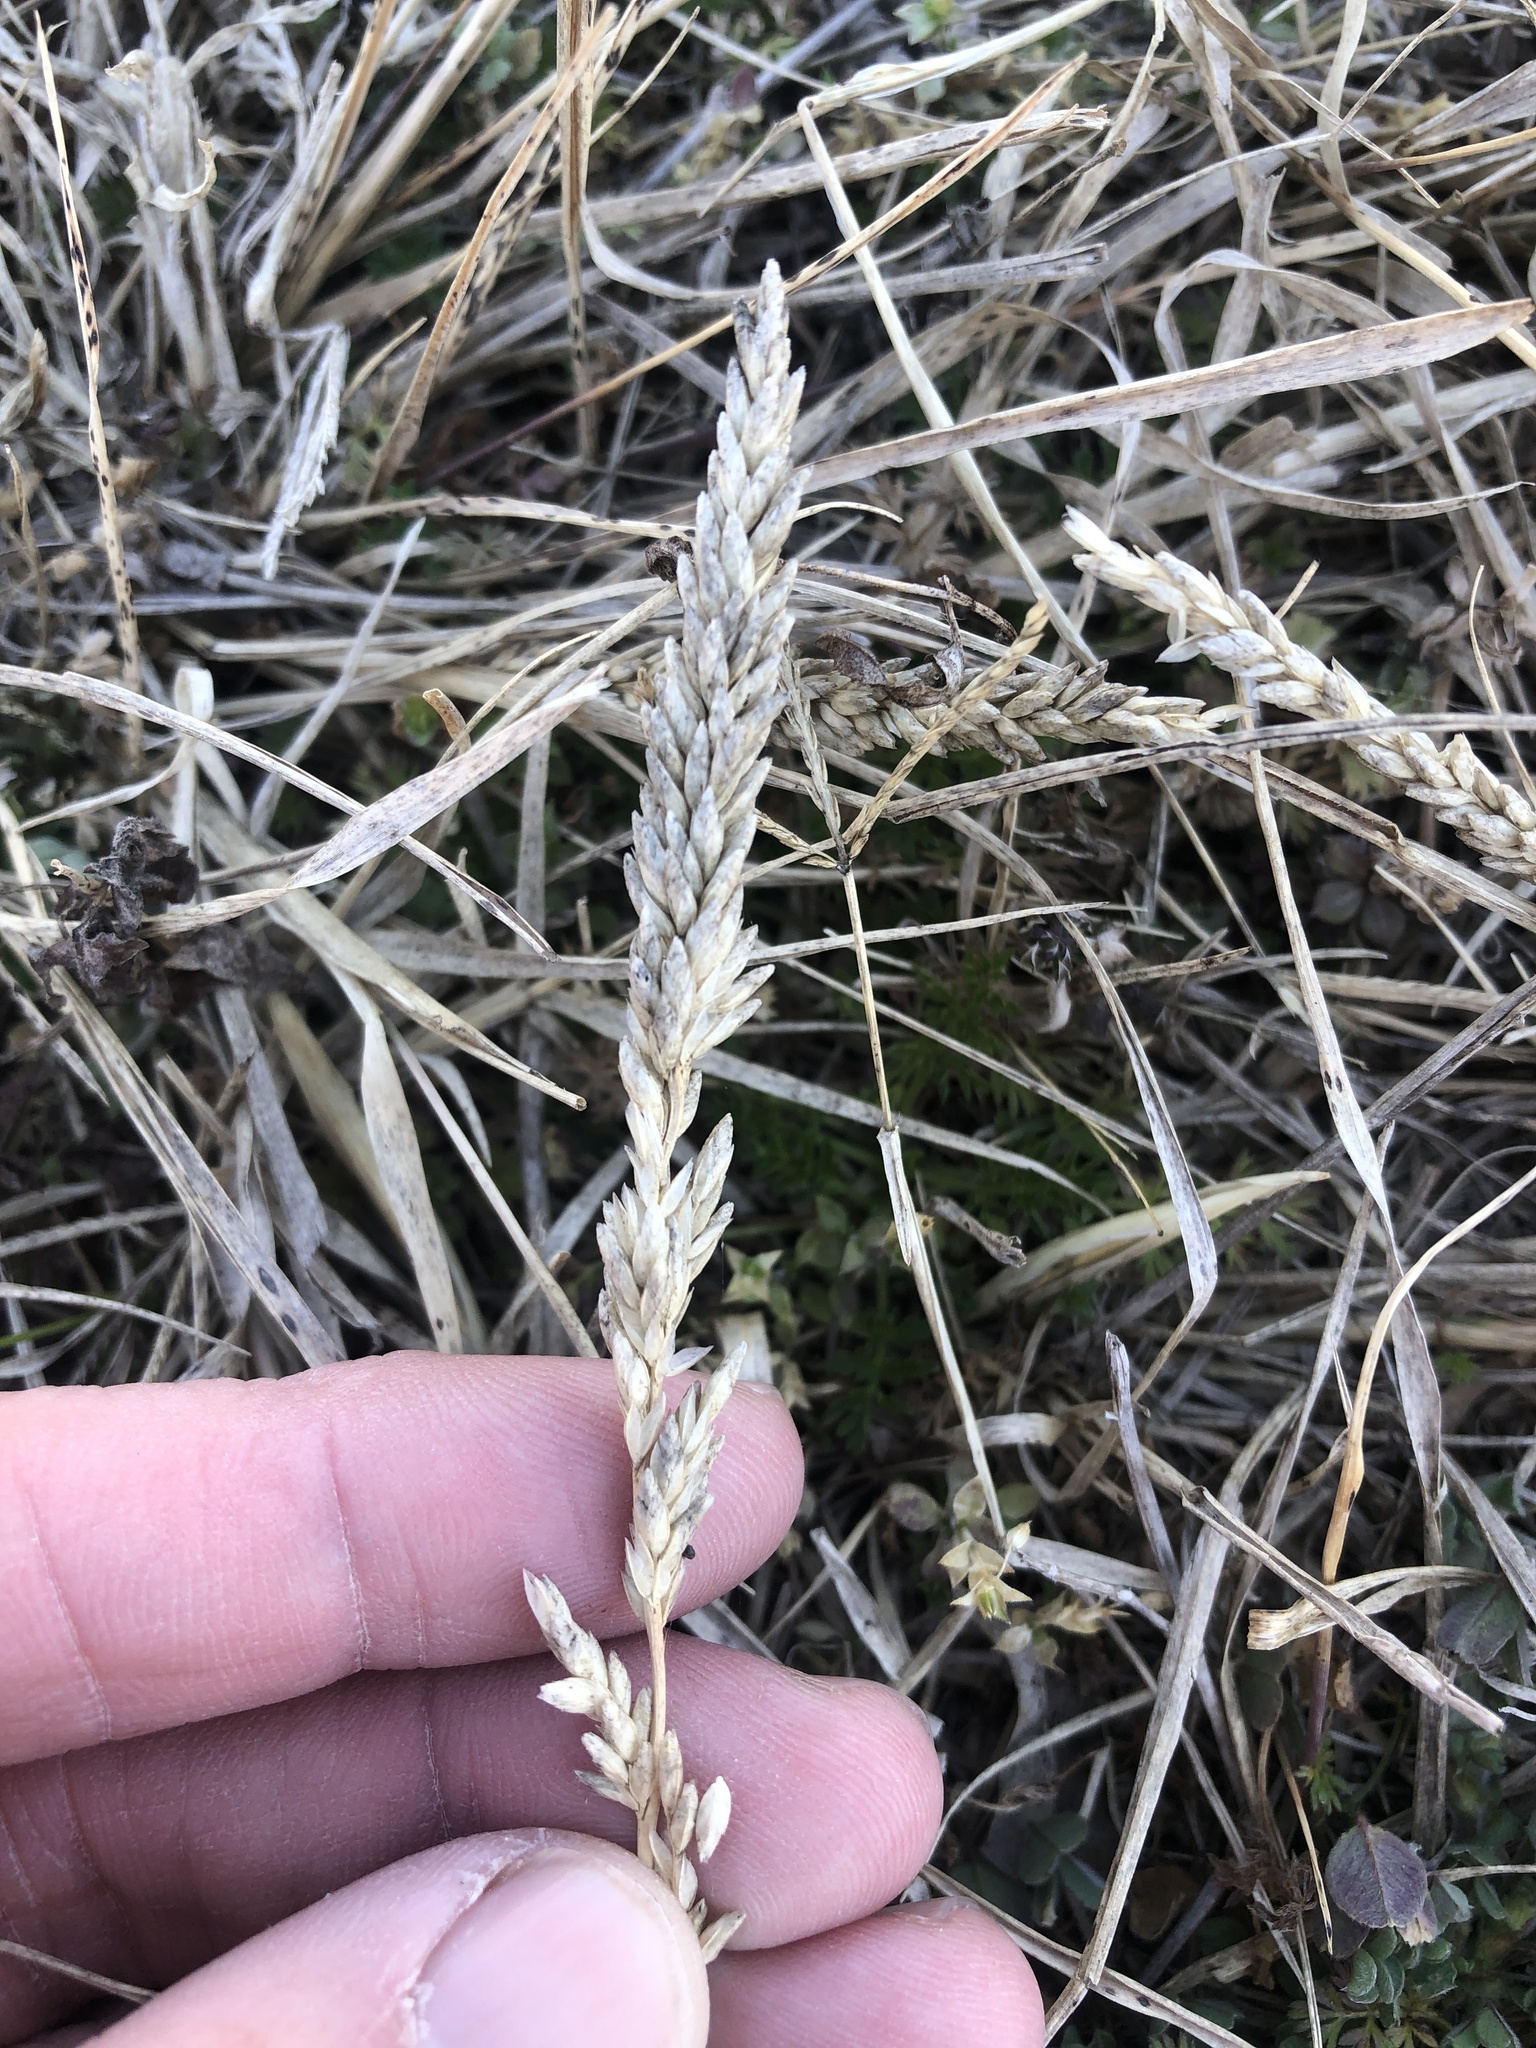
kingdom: Plantae
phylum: Tracheophyta
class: Liliopsida
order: Poales
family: Poaceae
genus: Tridens
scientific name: Tridens albescens
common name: White tridens
